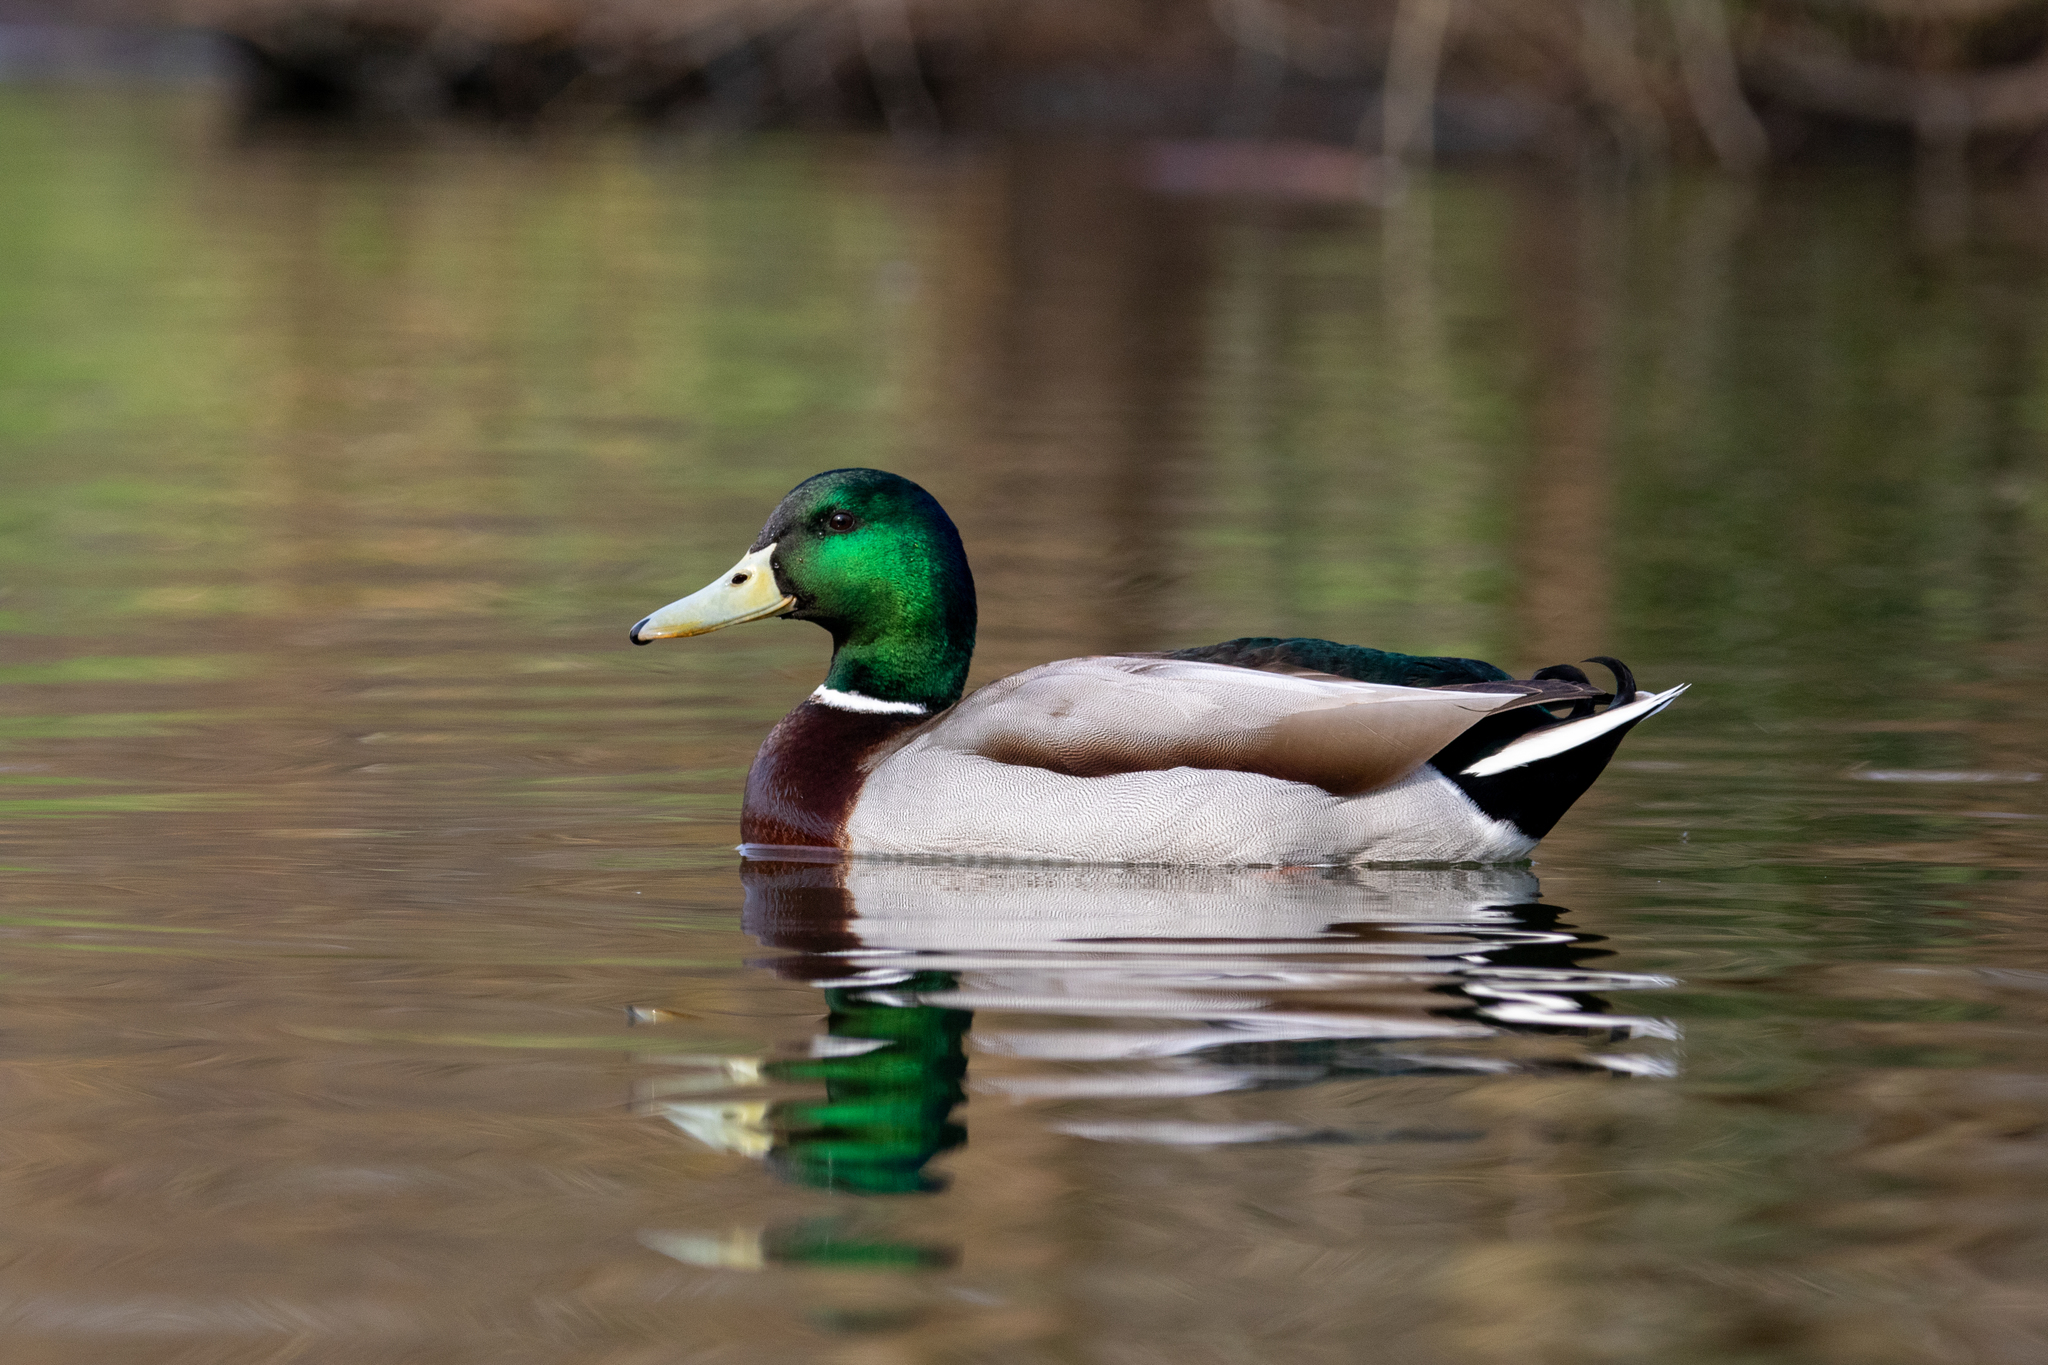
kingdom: Animalia
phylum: Chordata
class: Aves
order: Anseriformes
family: Anatidae
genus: Anas
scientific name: Anas platyrhynchos
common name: Mallard
